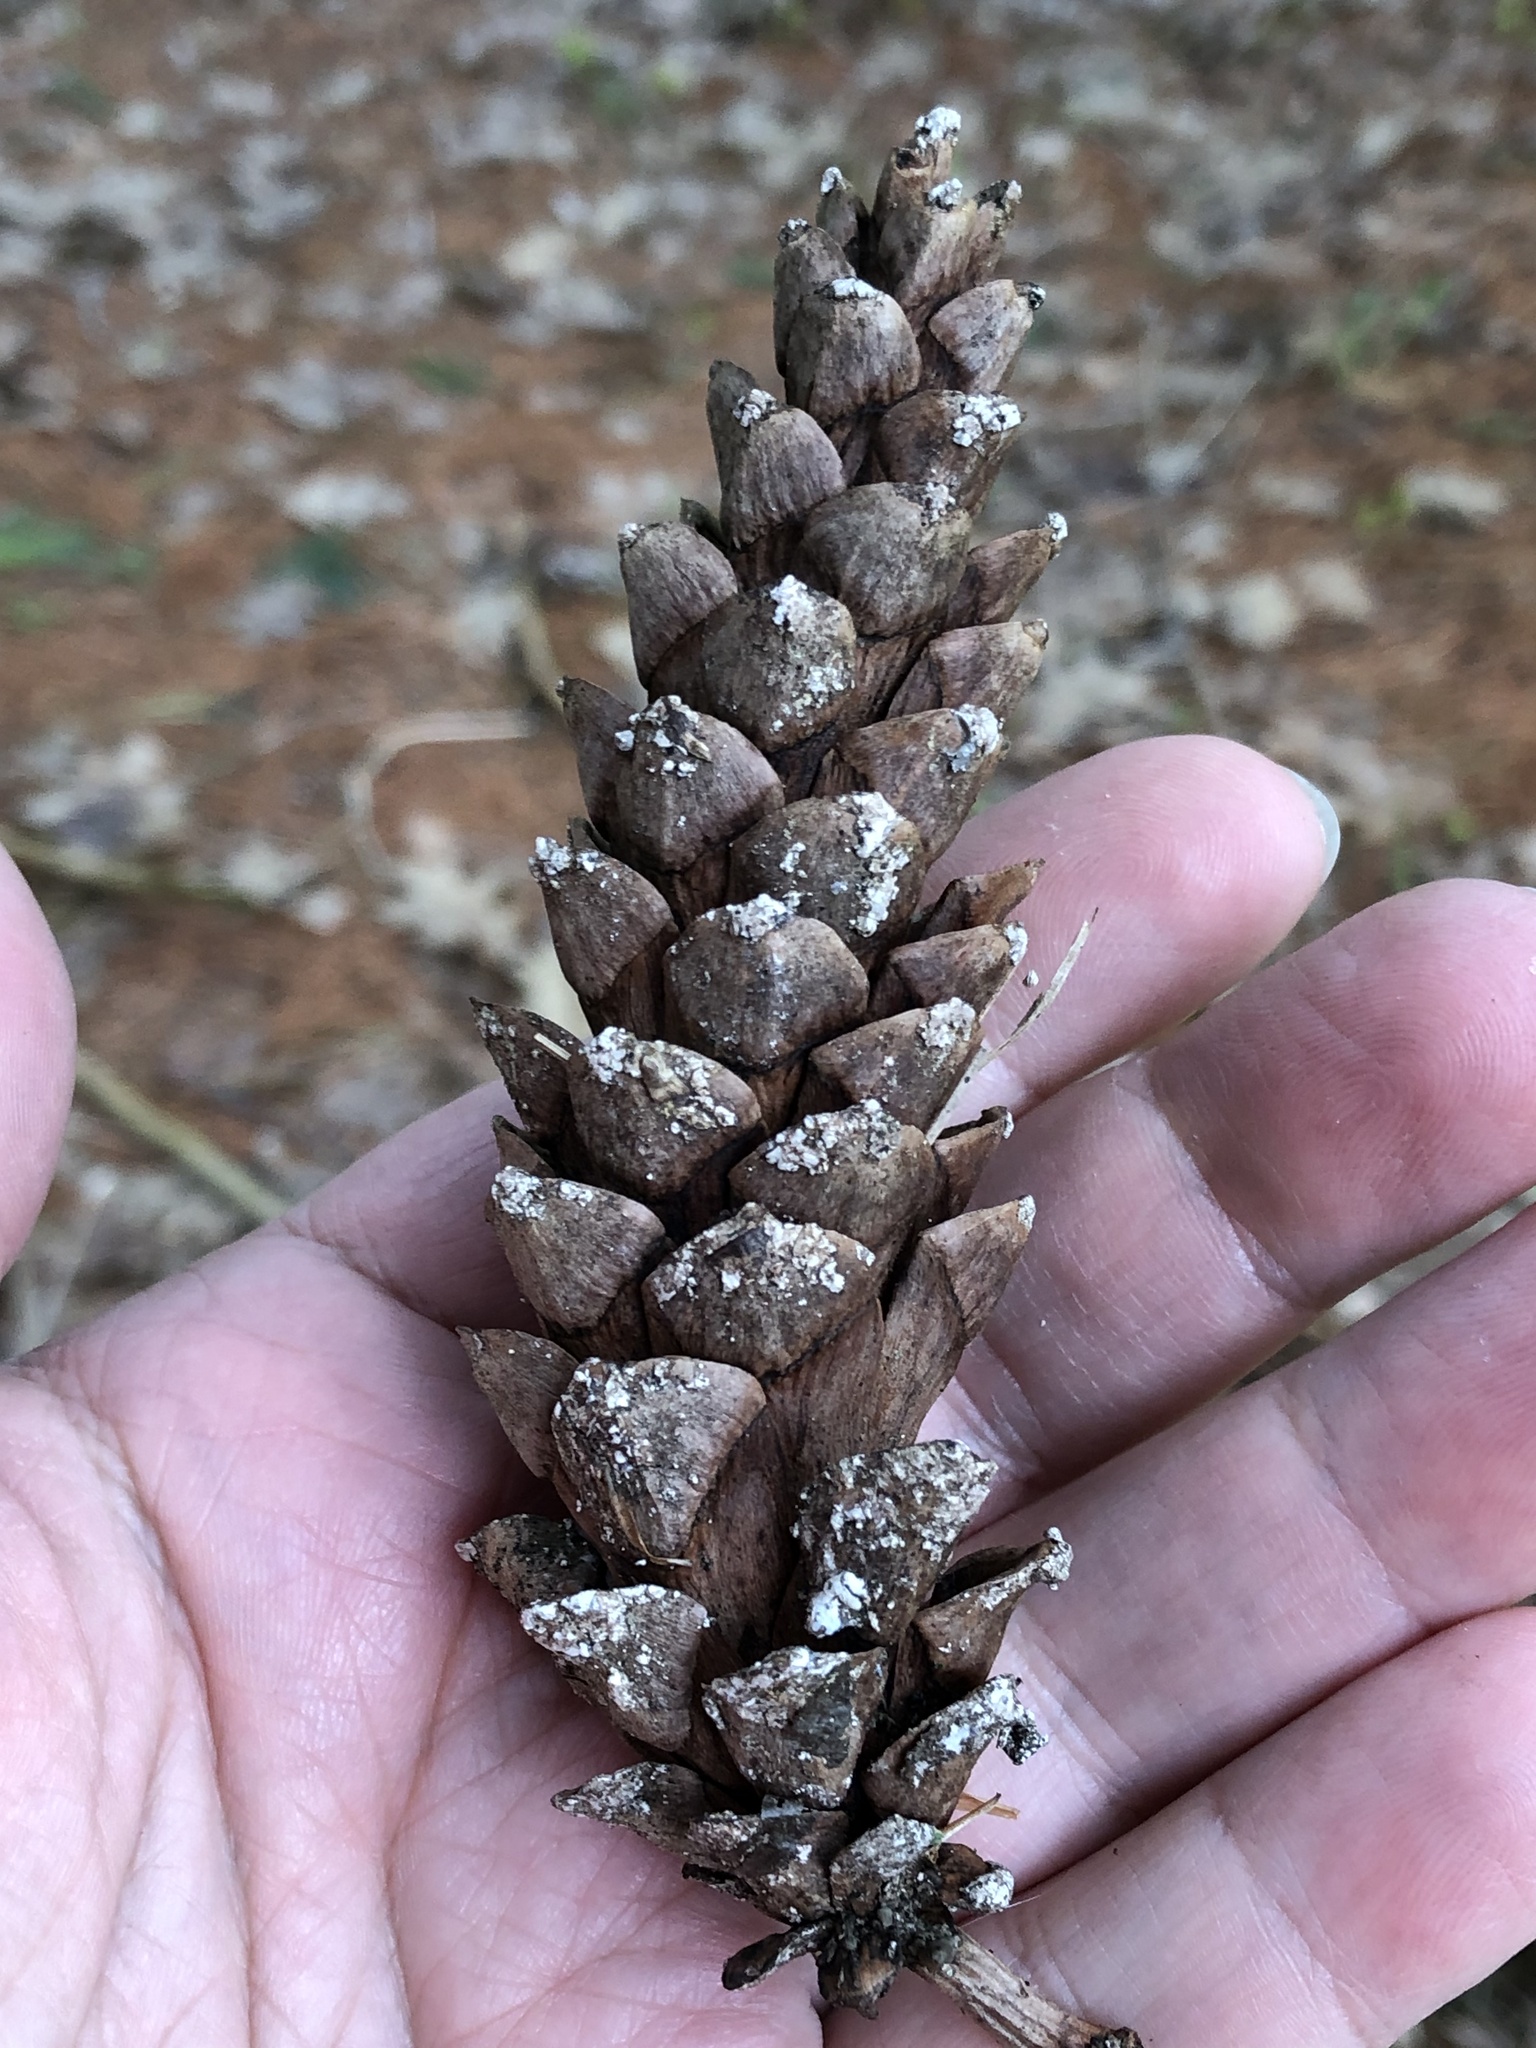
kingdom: Plantae
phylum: Tracheophyta
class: Pinopsida
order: Pinales
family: Pinaceae
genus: Pinus
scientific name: Pinus strobus
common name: Weymouth pine
